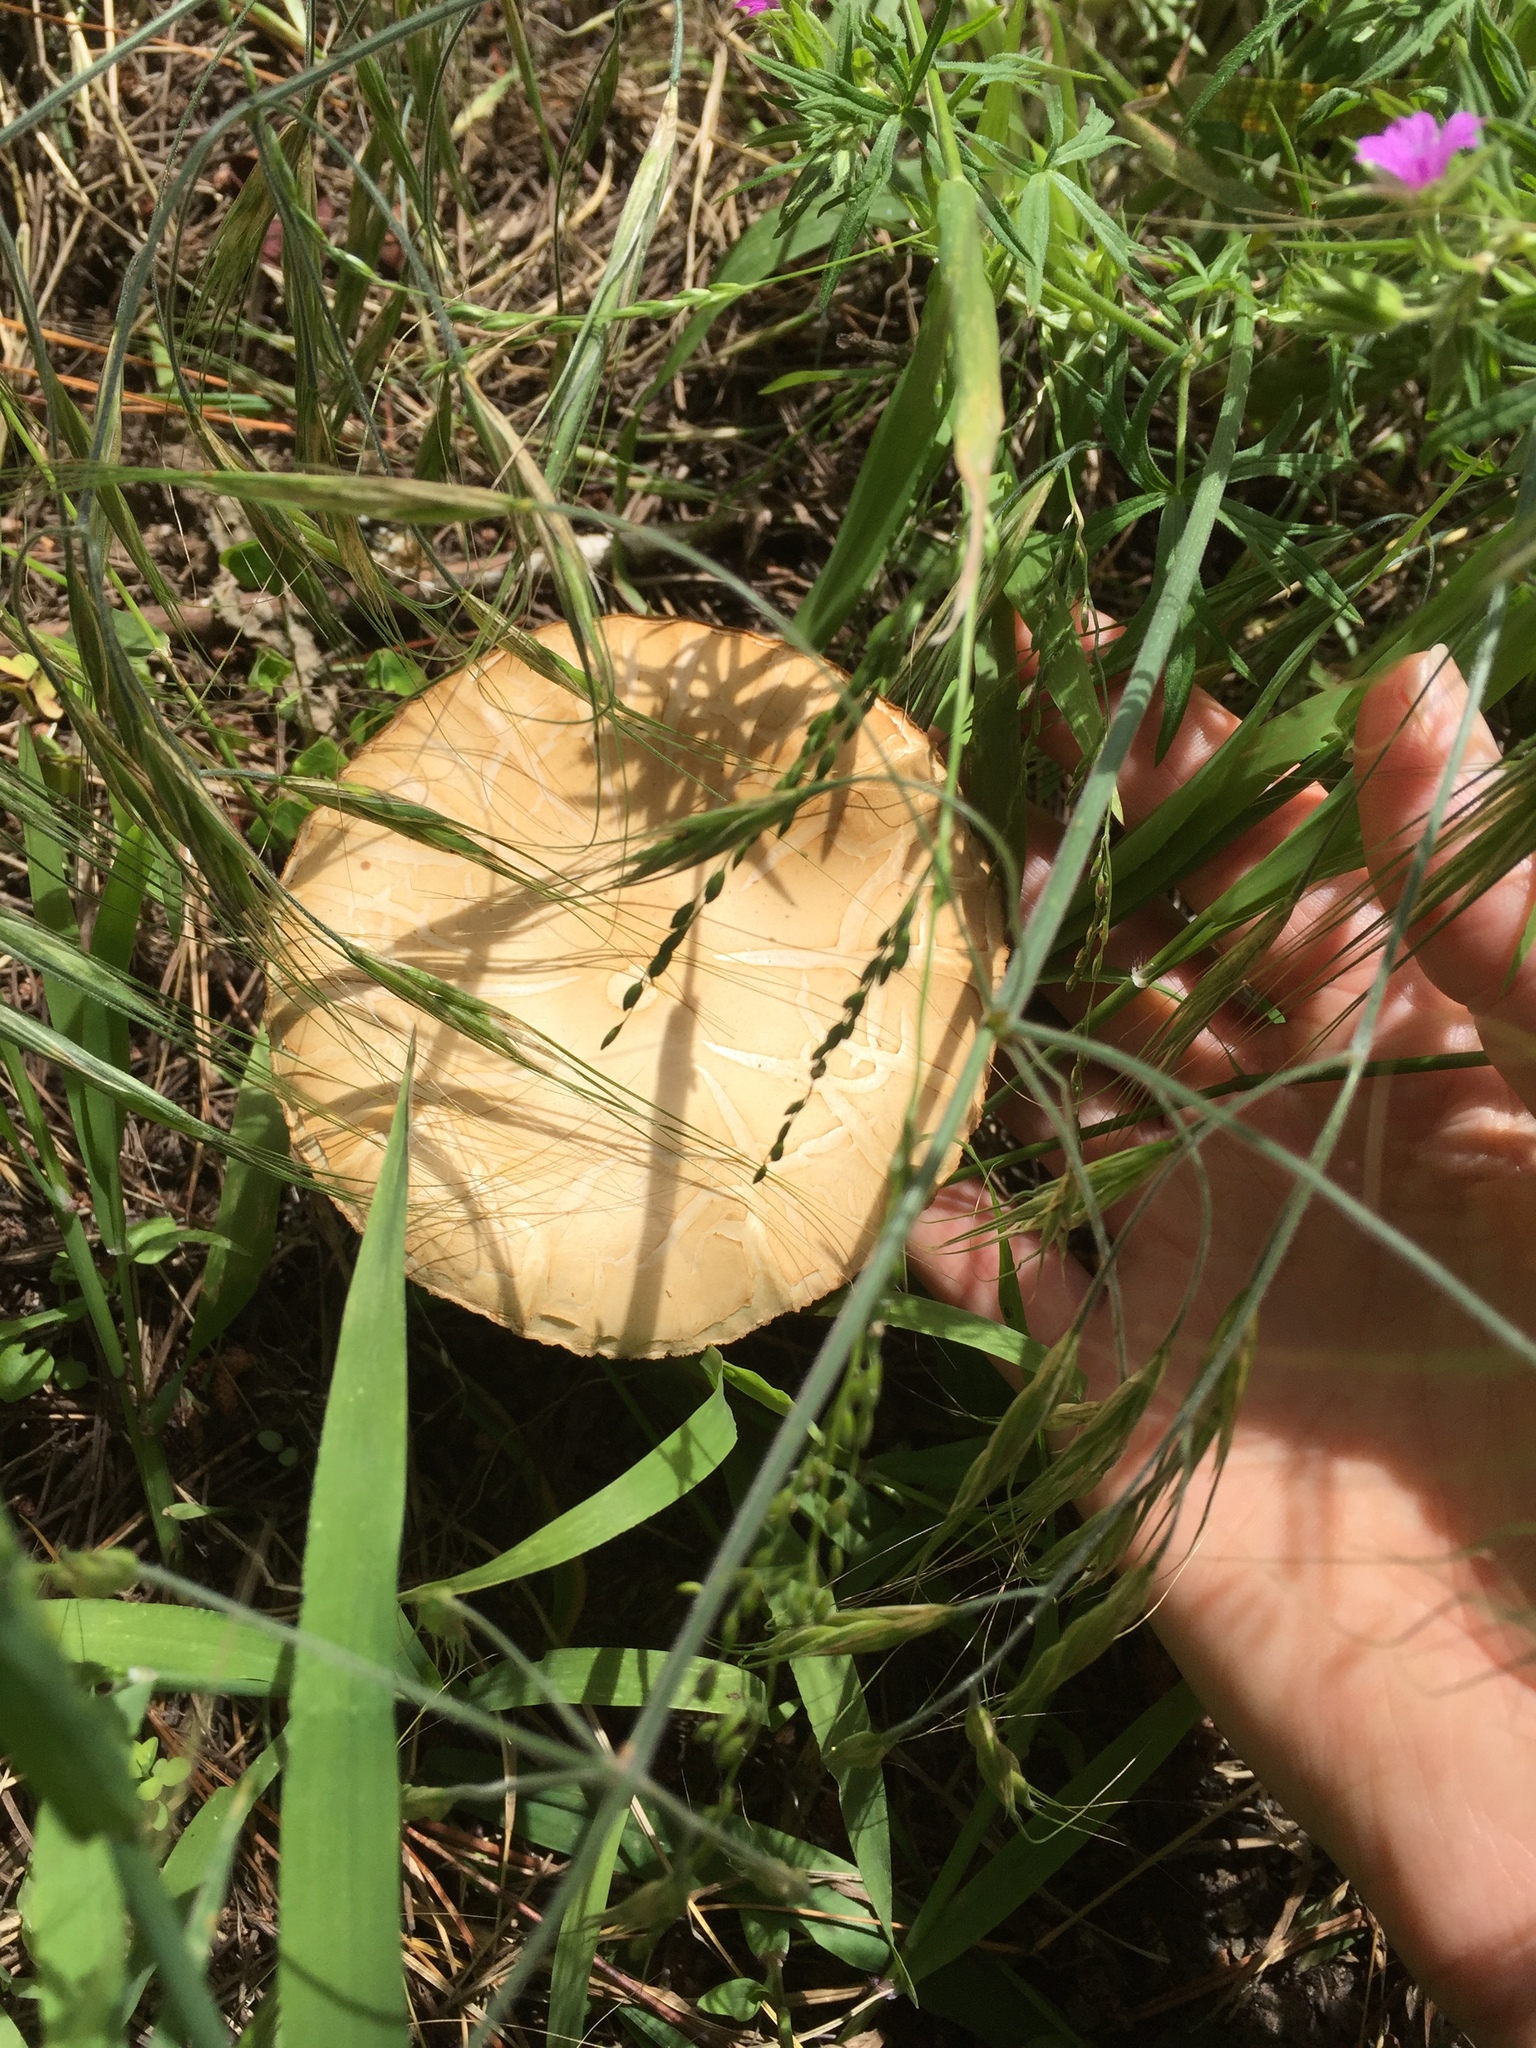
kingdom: Fungi
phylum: Basidiomycota
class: Agaricomycetes
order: Agaricales
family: Strophariaceae
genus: Agrocybe
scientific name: Agrocybe praecox
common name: Spring fieldcap
